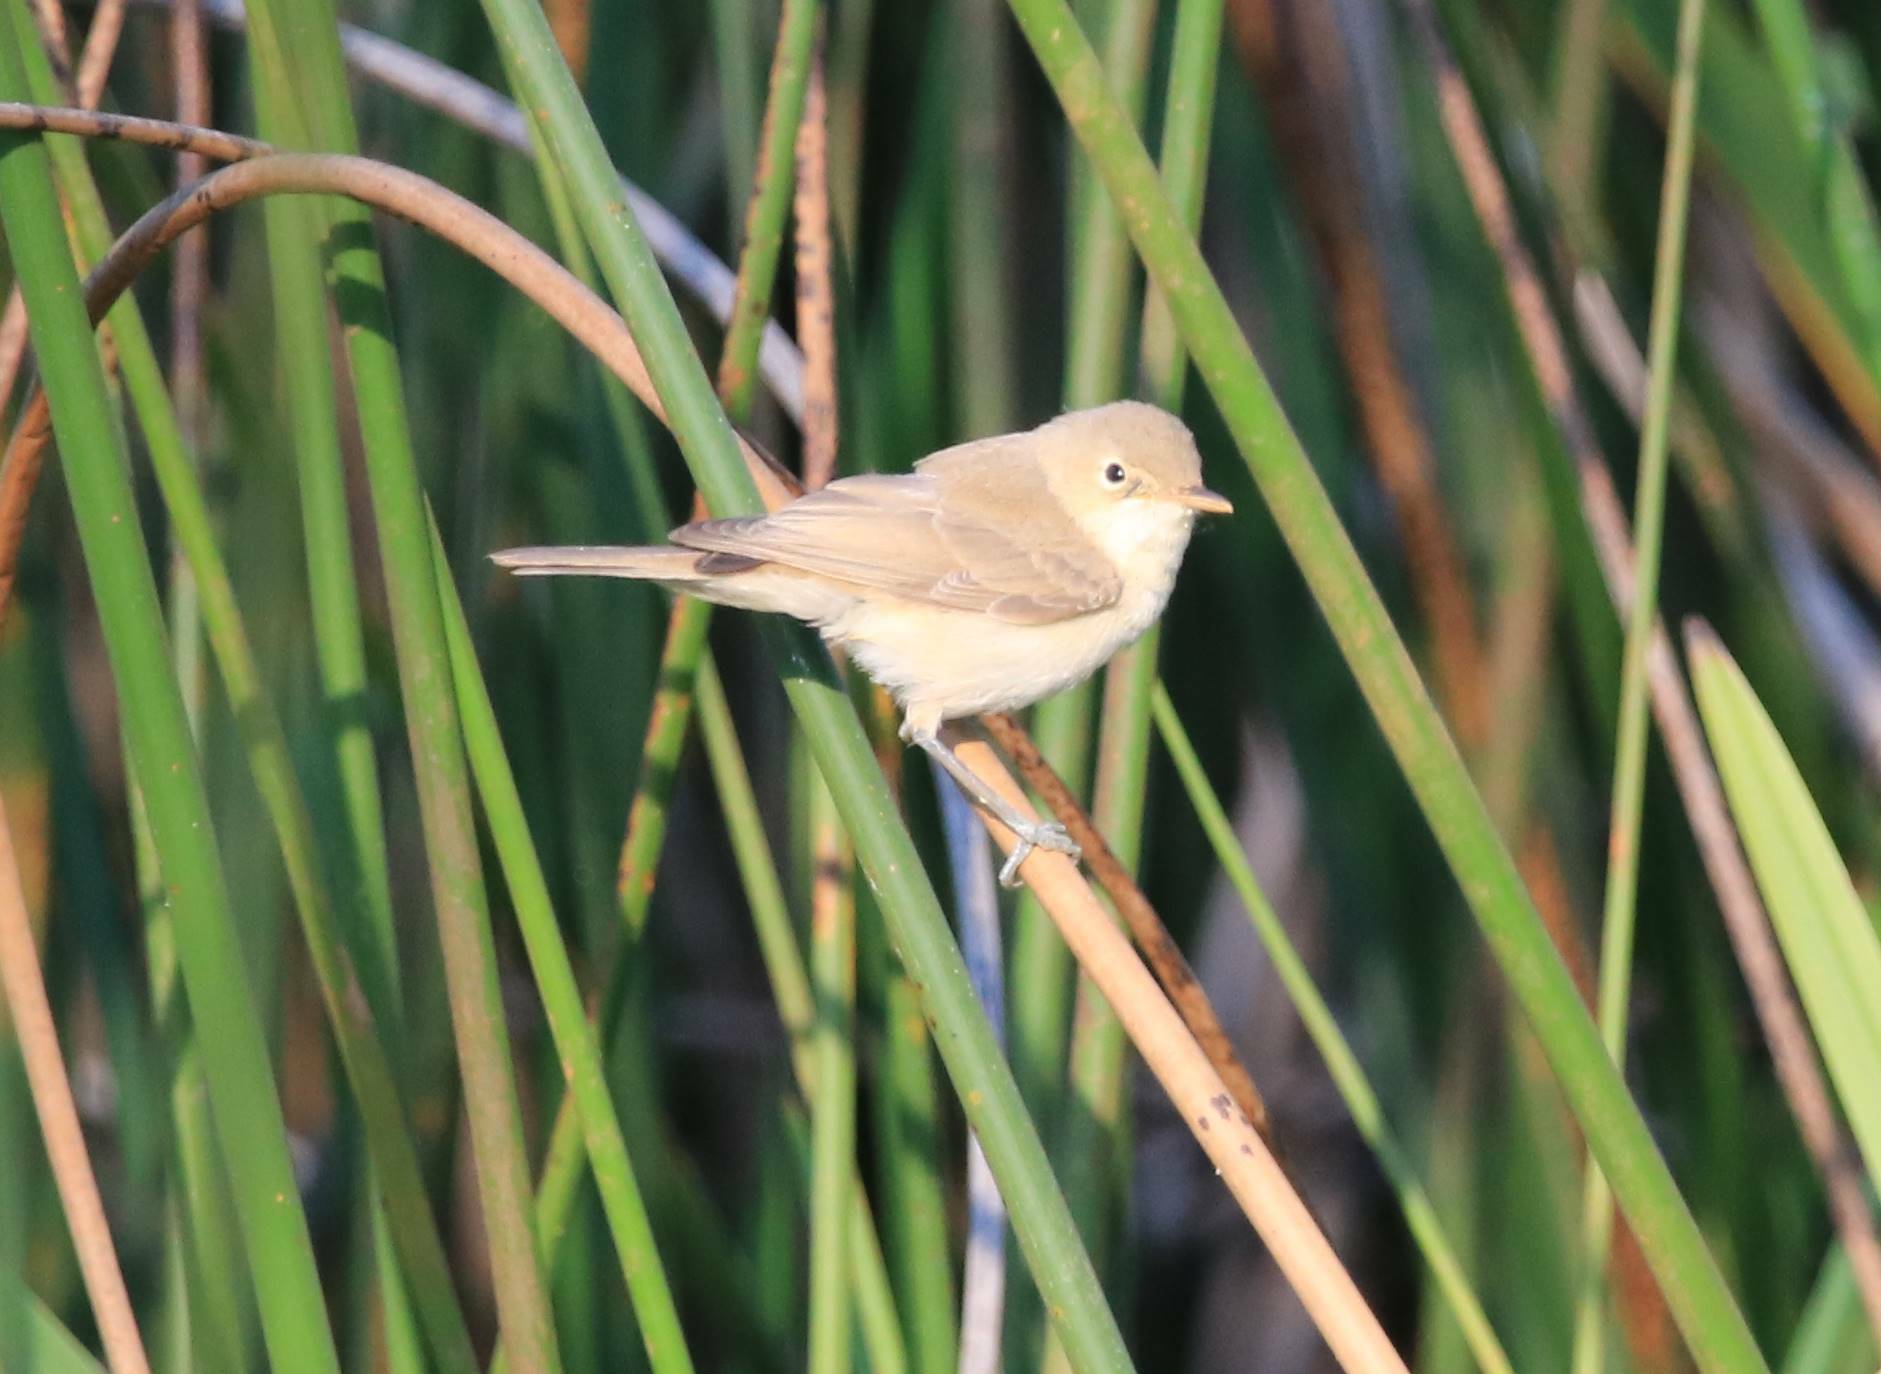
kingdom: Animalia
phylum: Chordata
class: Aves
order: Passeriformes
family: Acrocephalidae
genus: Acrocephalus
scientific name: Acrocephalus scirpaceus
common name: Eurasian reed warbler
